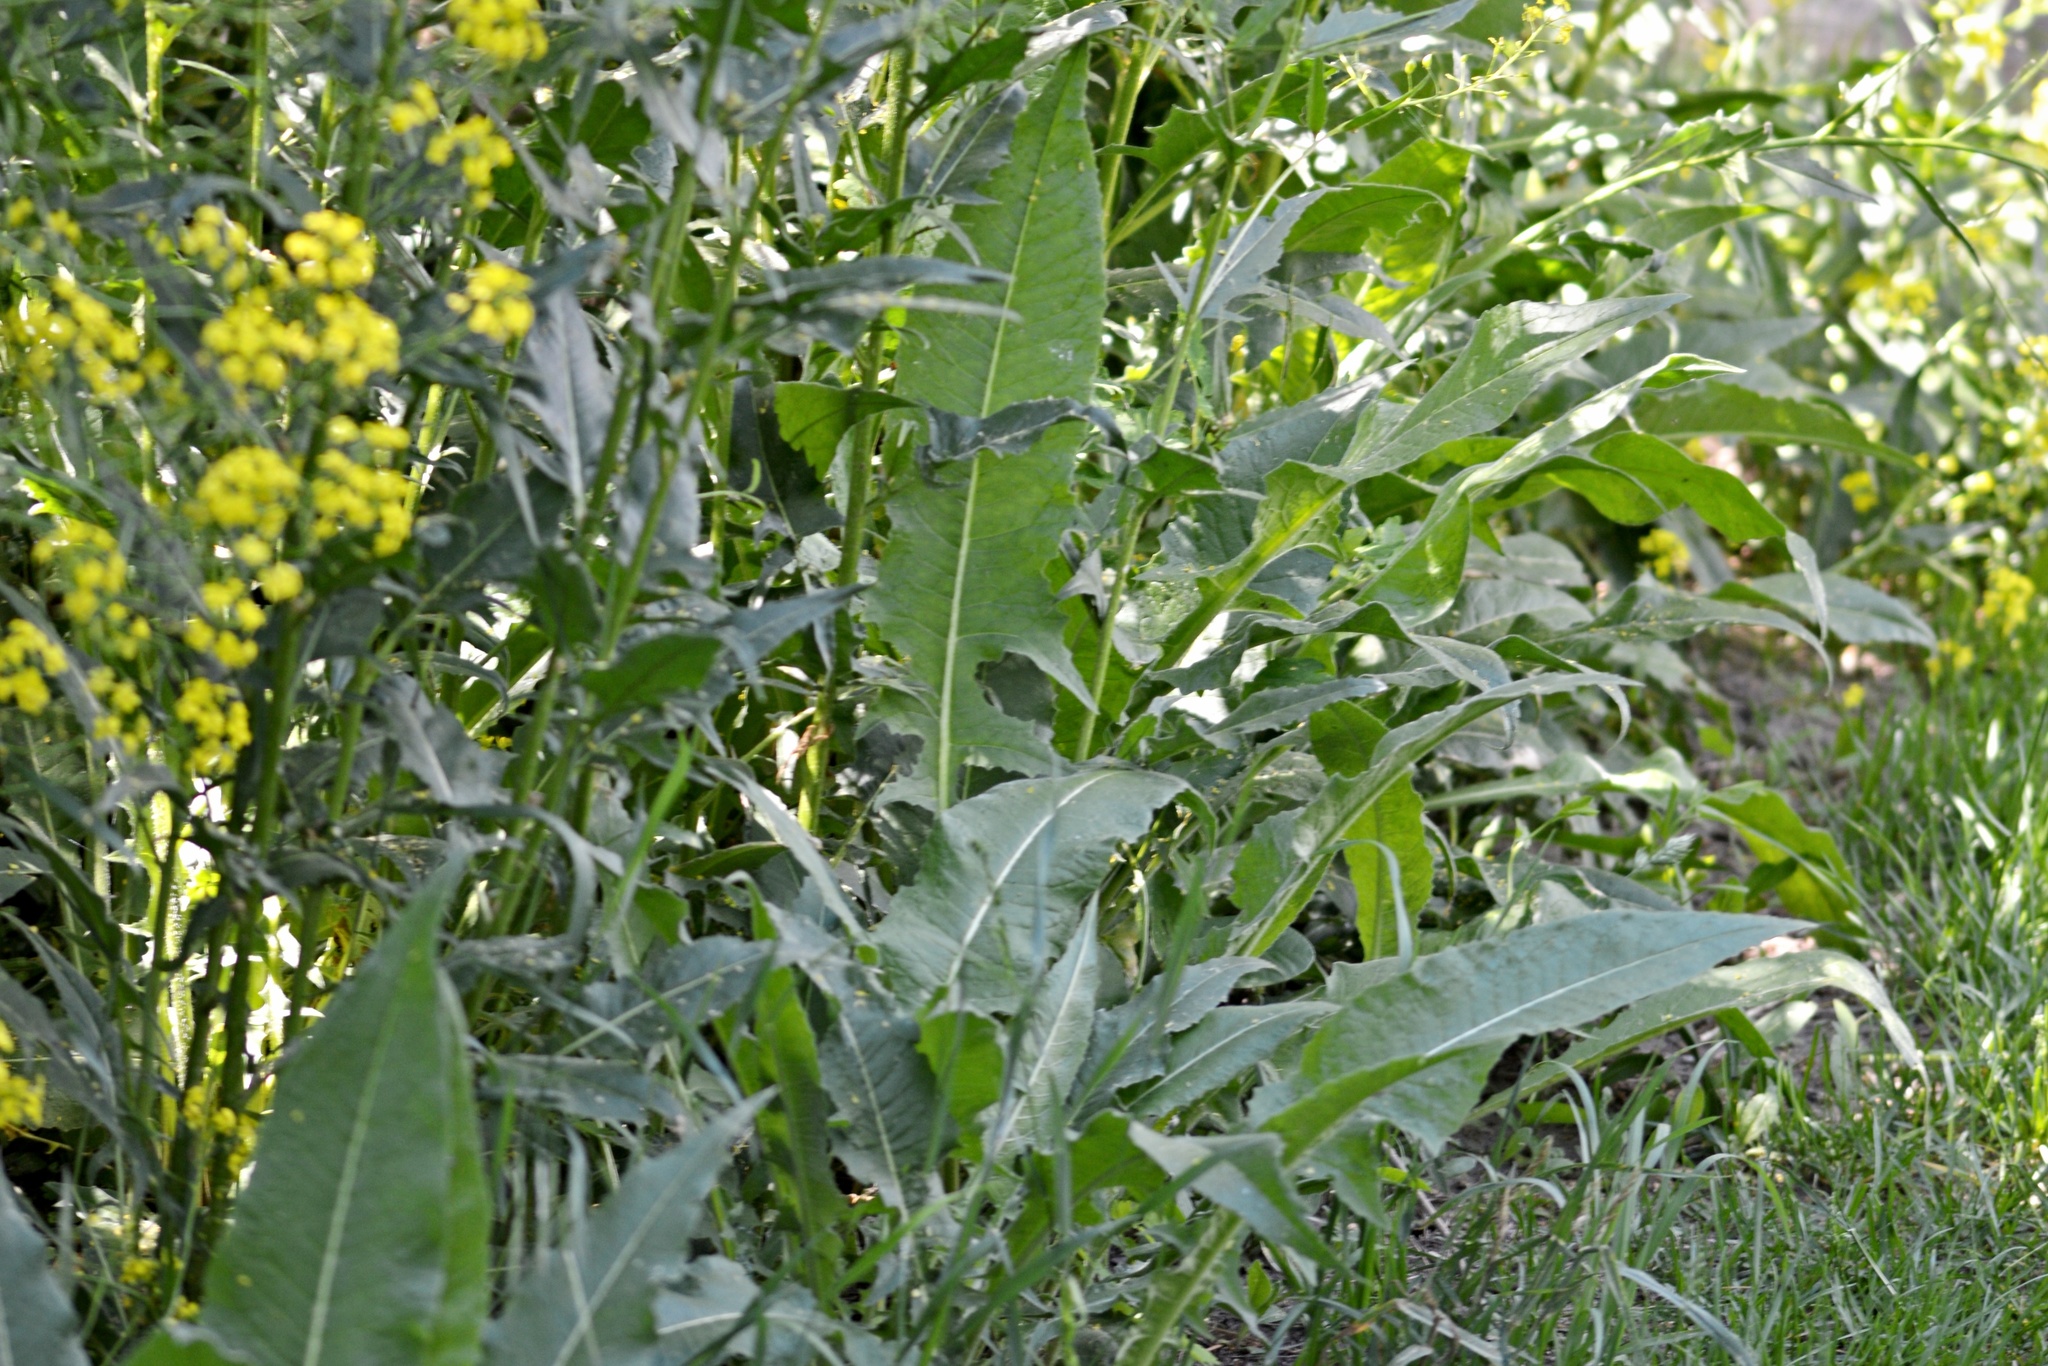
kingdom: Plantae
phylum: Tracheophyta
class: Magnoliopsida
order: Brassicales
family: Brassicaceae
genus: Bunias
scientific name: Bunias orientalis
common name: Warty-cabbage
